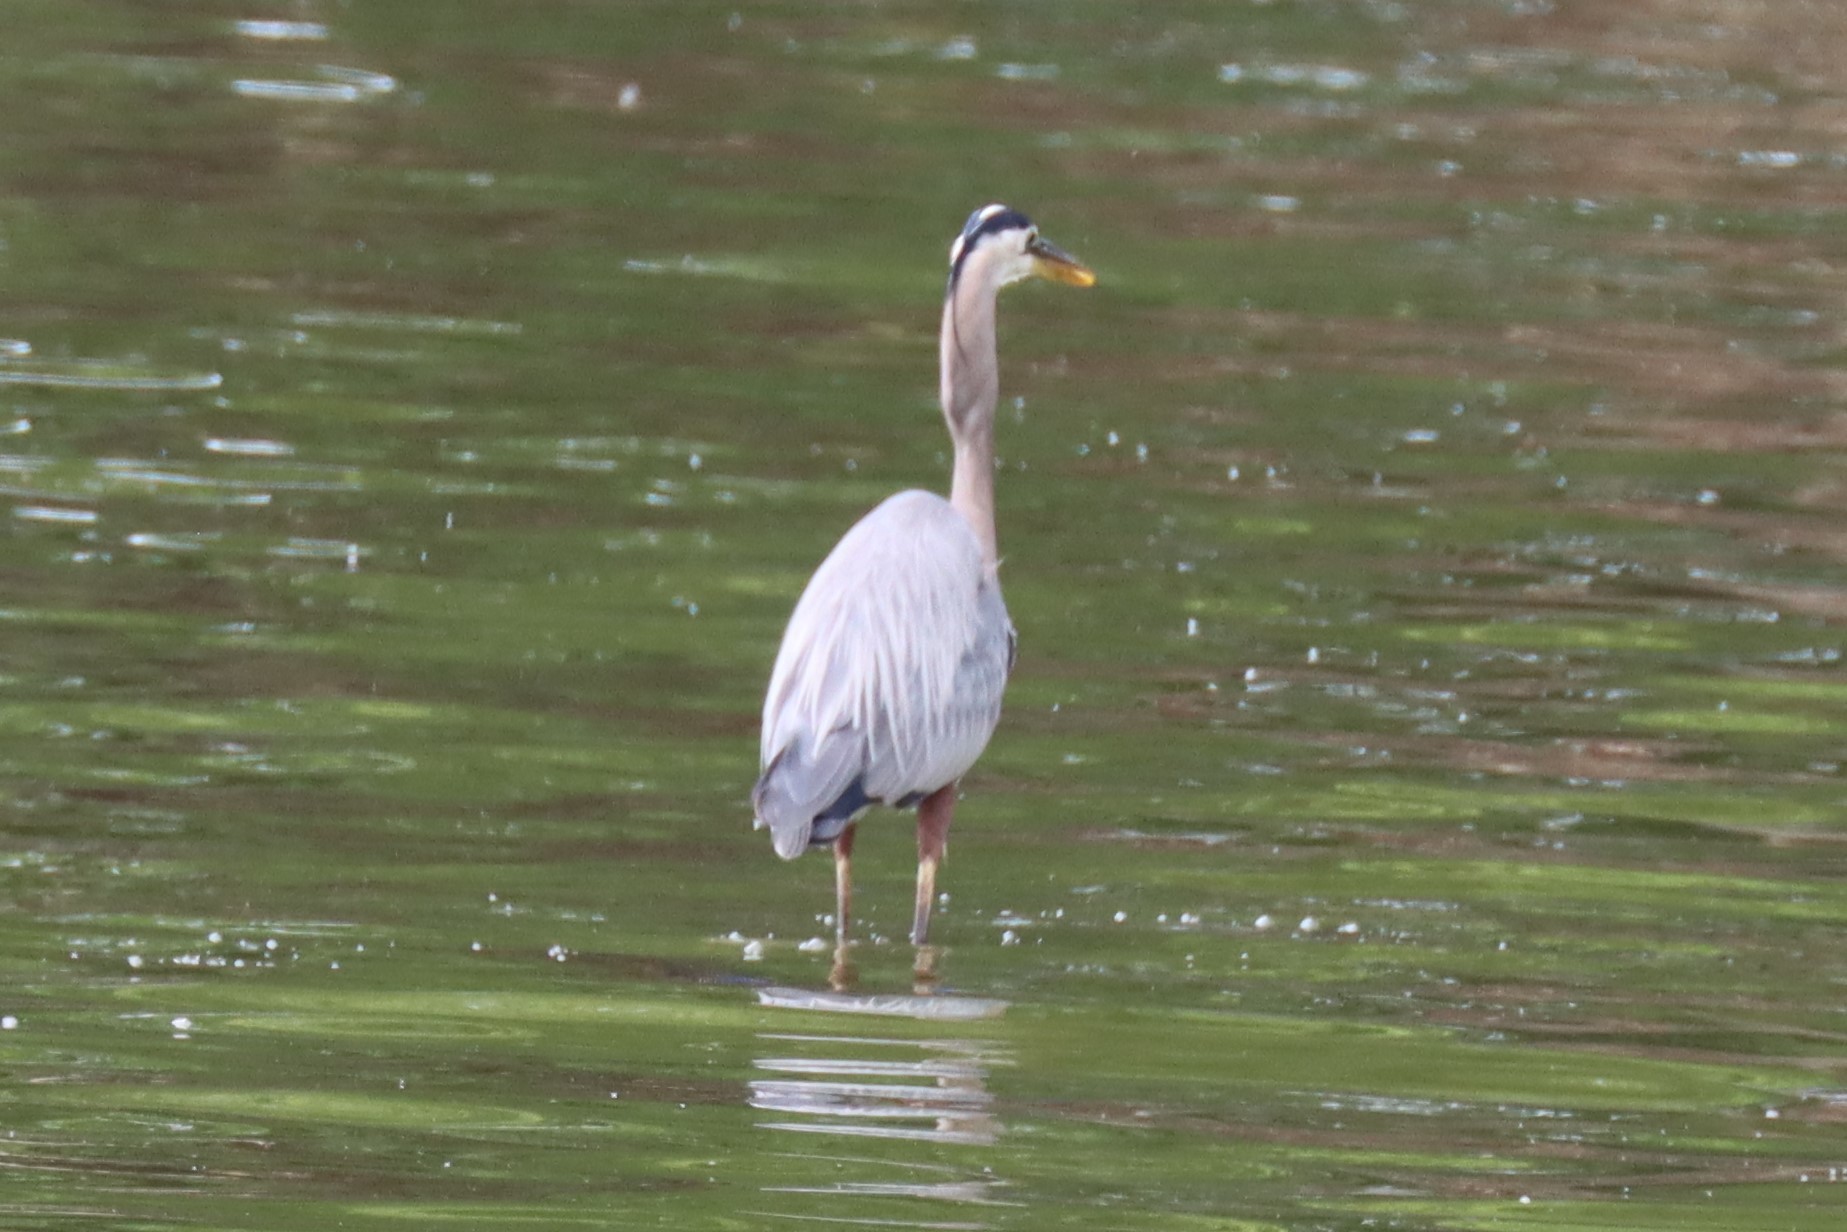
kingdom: Animalia
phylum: Chordata
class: Aves
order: Pelecaniformes
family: Ardeidae
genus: Ardea
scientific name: Ardea herodias
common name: Great blue heron
